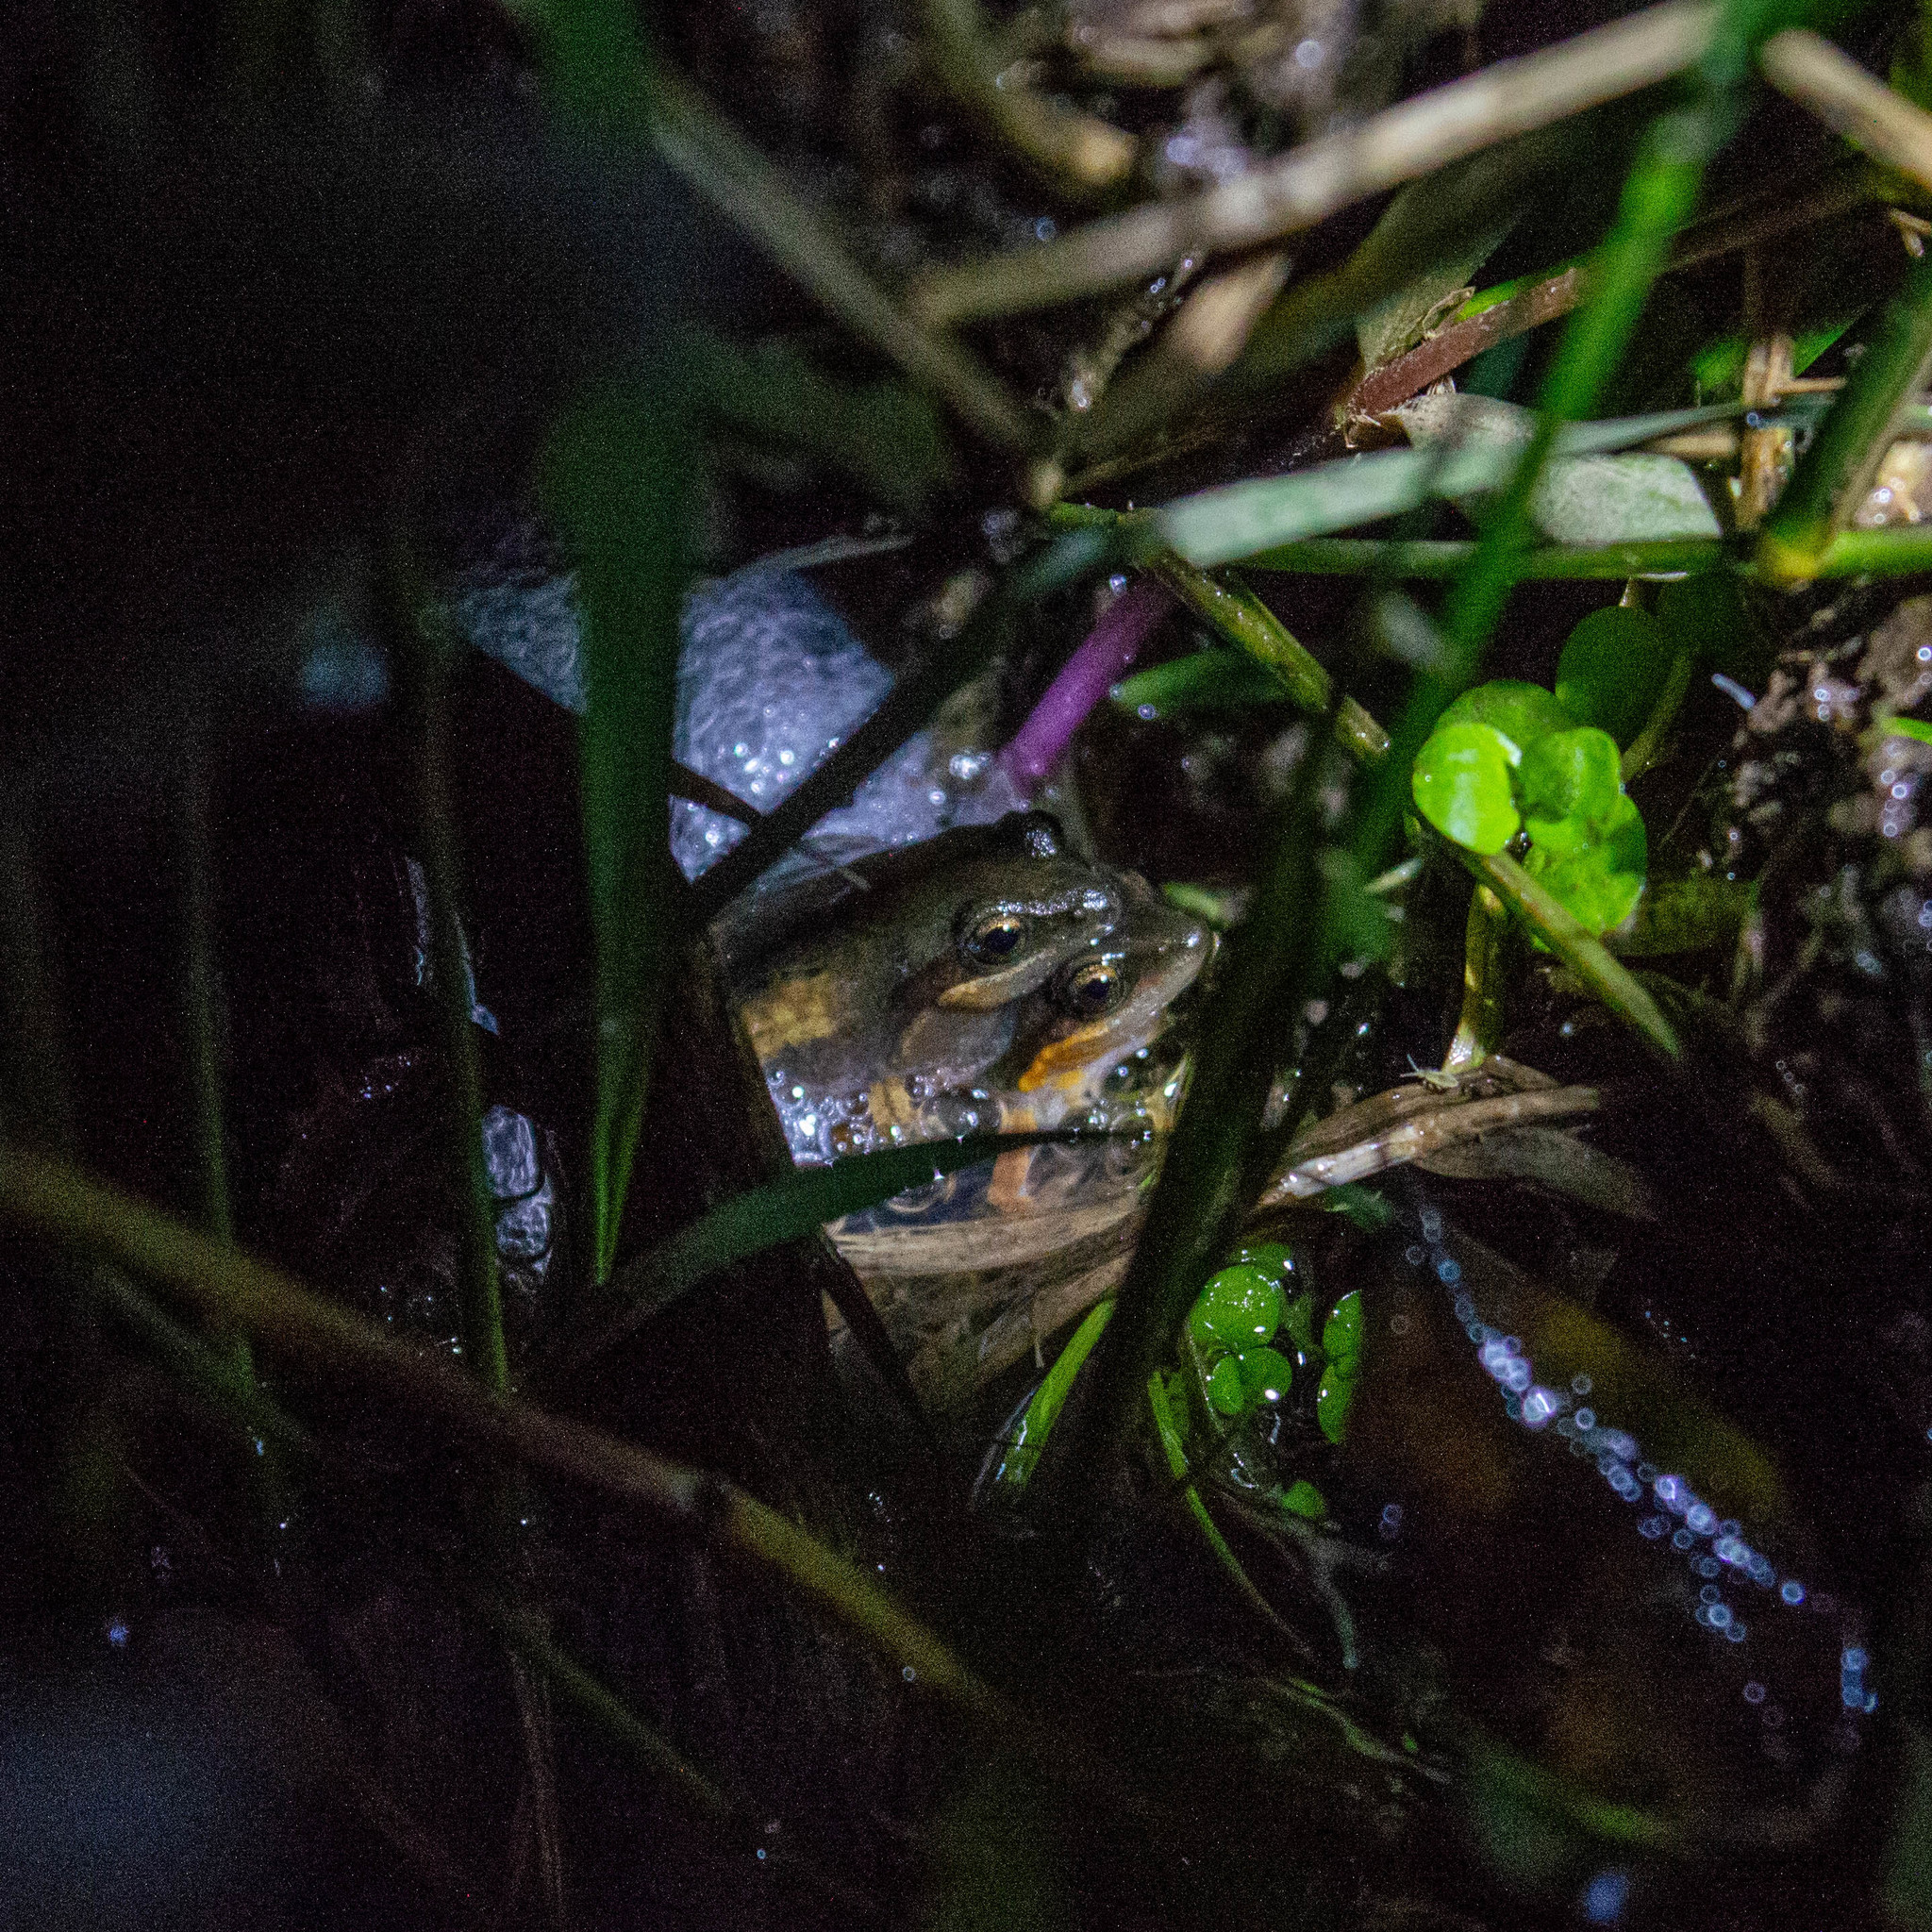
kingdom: Animalia
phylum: Chordata
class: Amphibia
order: Anura
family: Leptodactylidae
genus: Physalaemus
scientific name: Physalaemus henselii
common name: Hensel's dwarf frog
